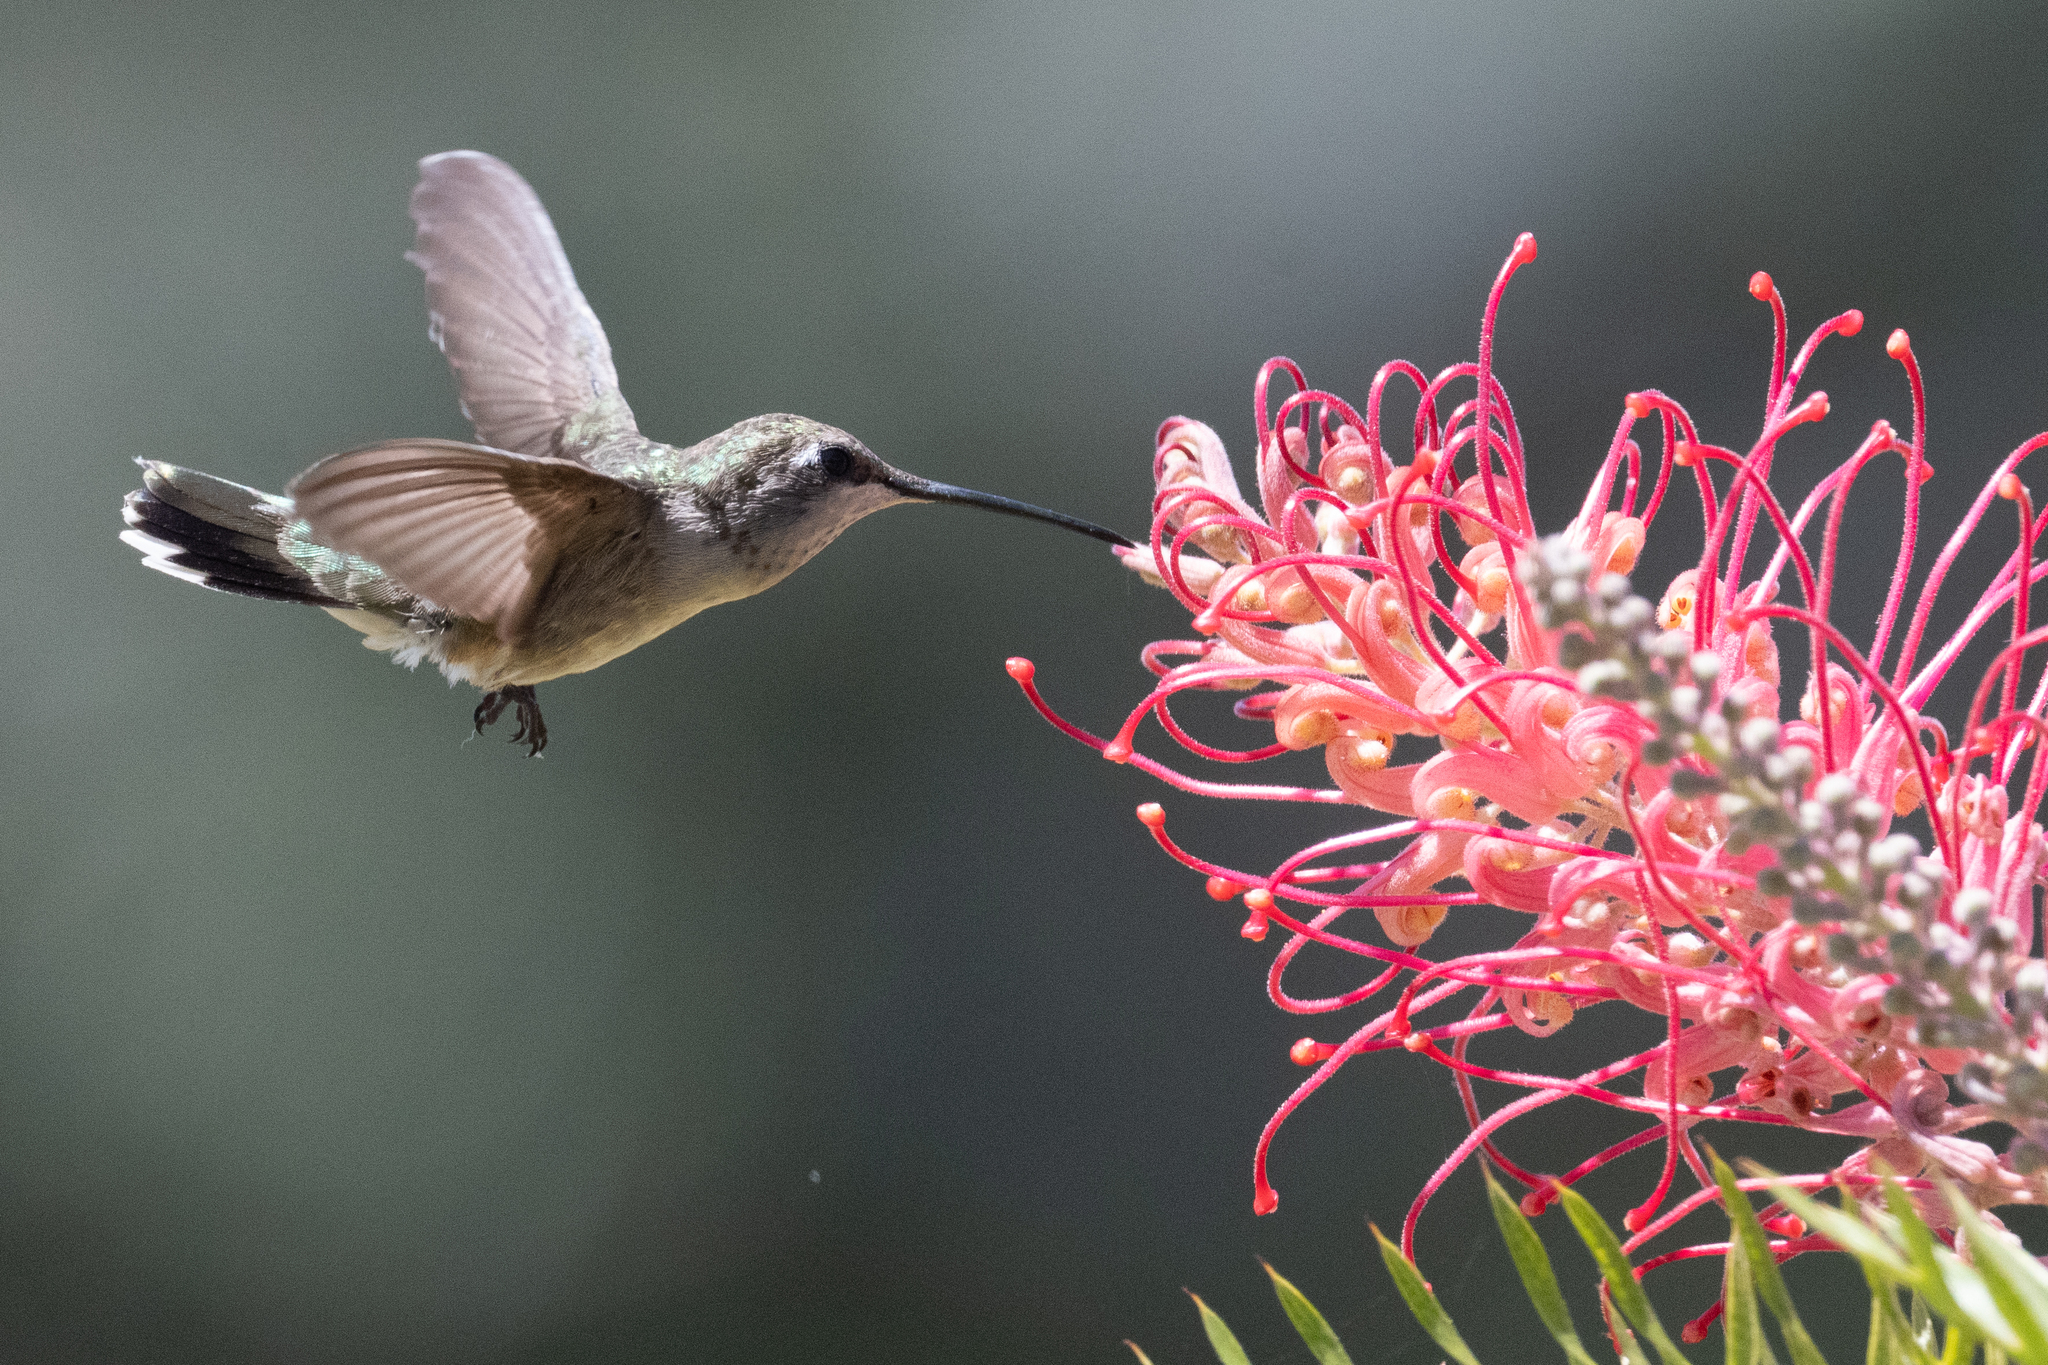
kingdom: Animalia
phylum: Chordata
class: Aves
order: Apodiformes
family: Trochilidae
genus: Archilochus
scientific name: Archilochus alexandri
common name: Black-chinned hummingbird
